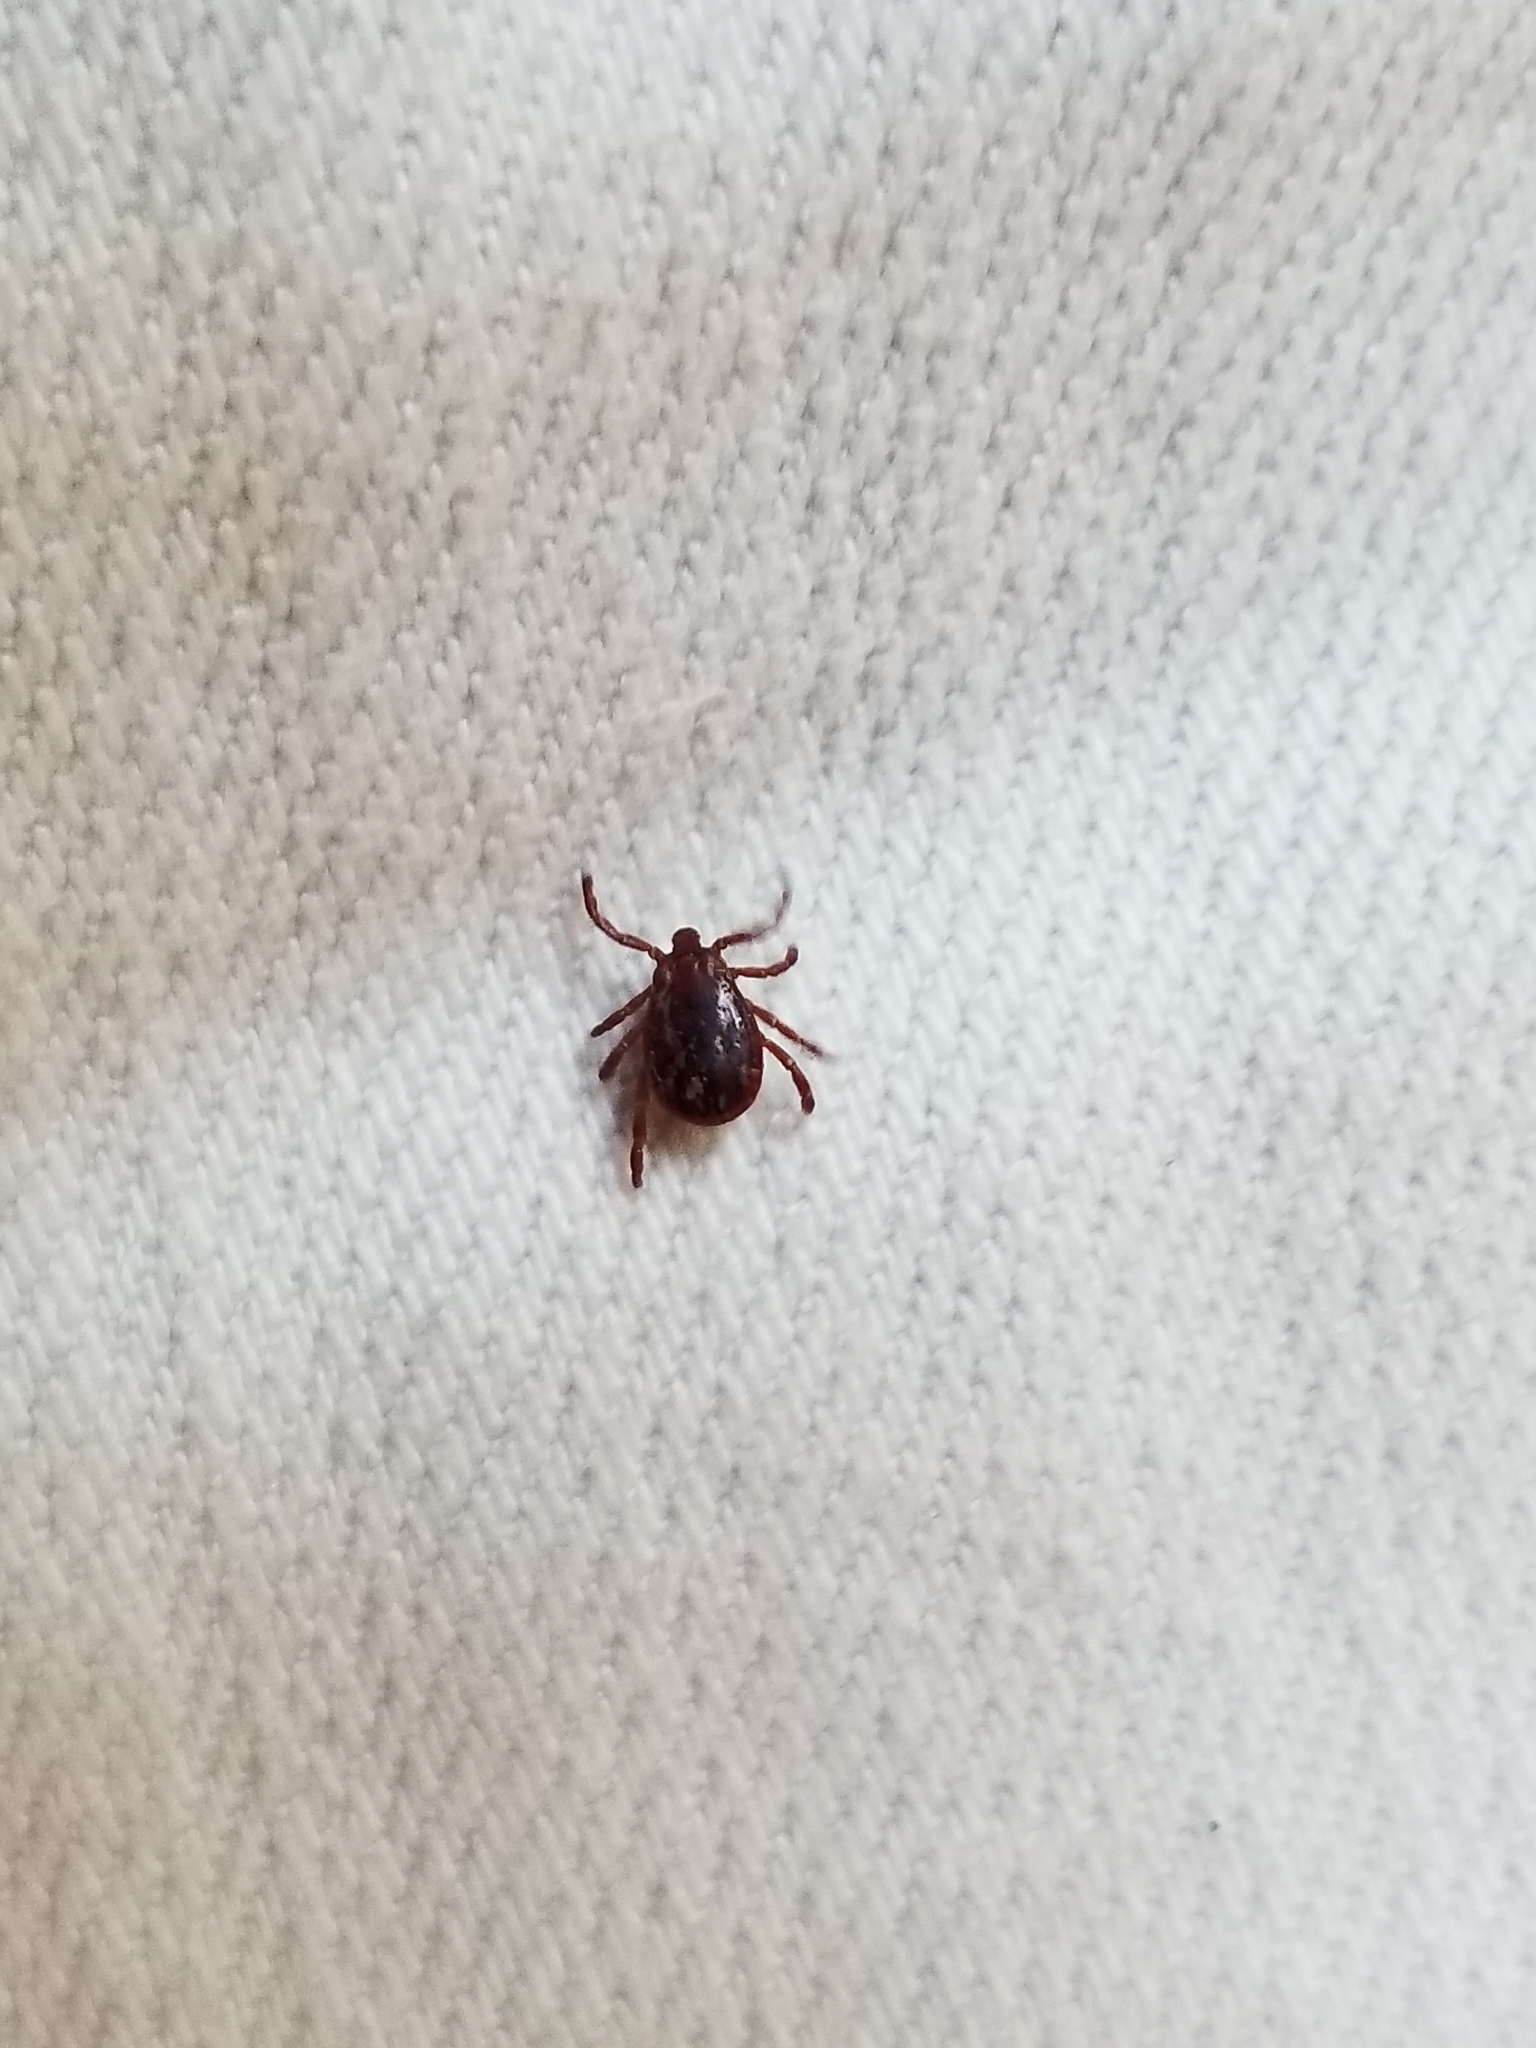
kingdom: Animalia
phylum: Arthropoda
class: Arachnida
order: Ixodida
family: Ixodidae
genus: Dermacentor
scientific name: Dermacentor variabilis
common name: American dog tick
